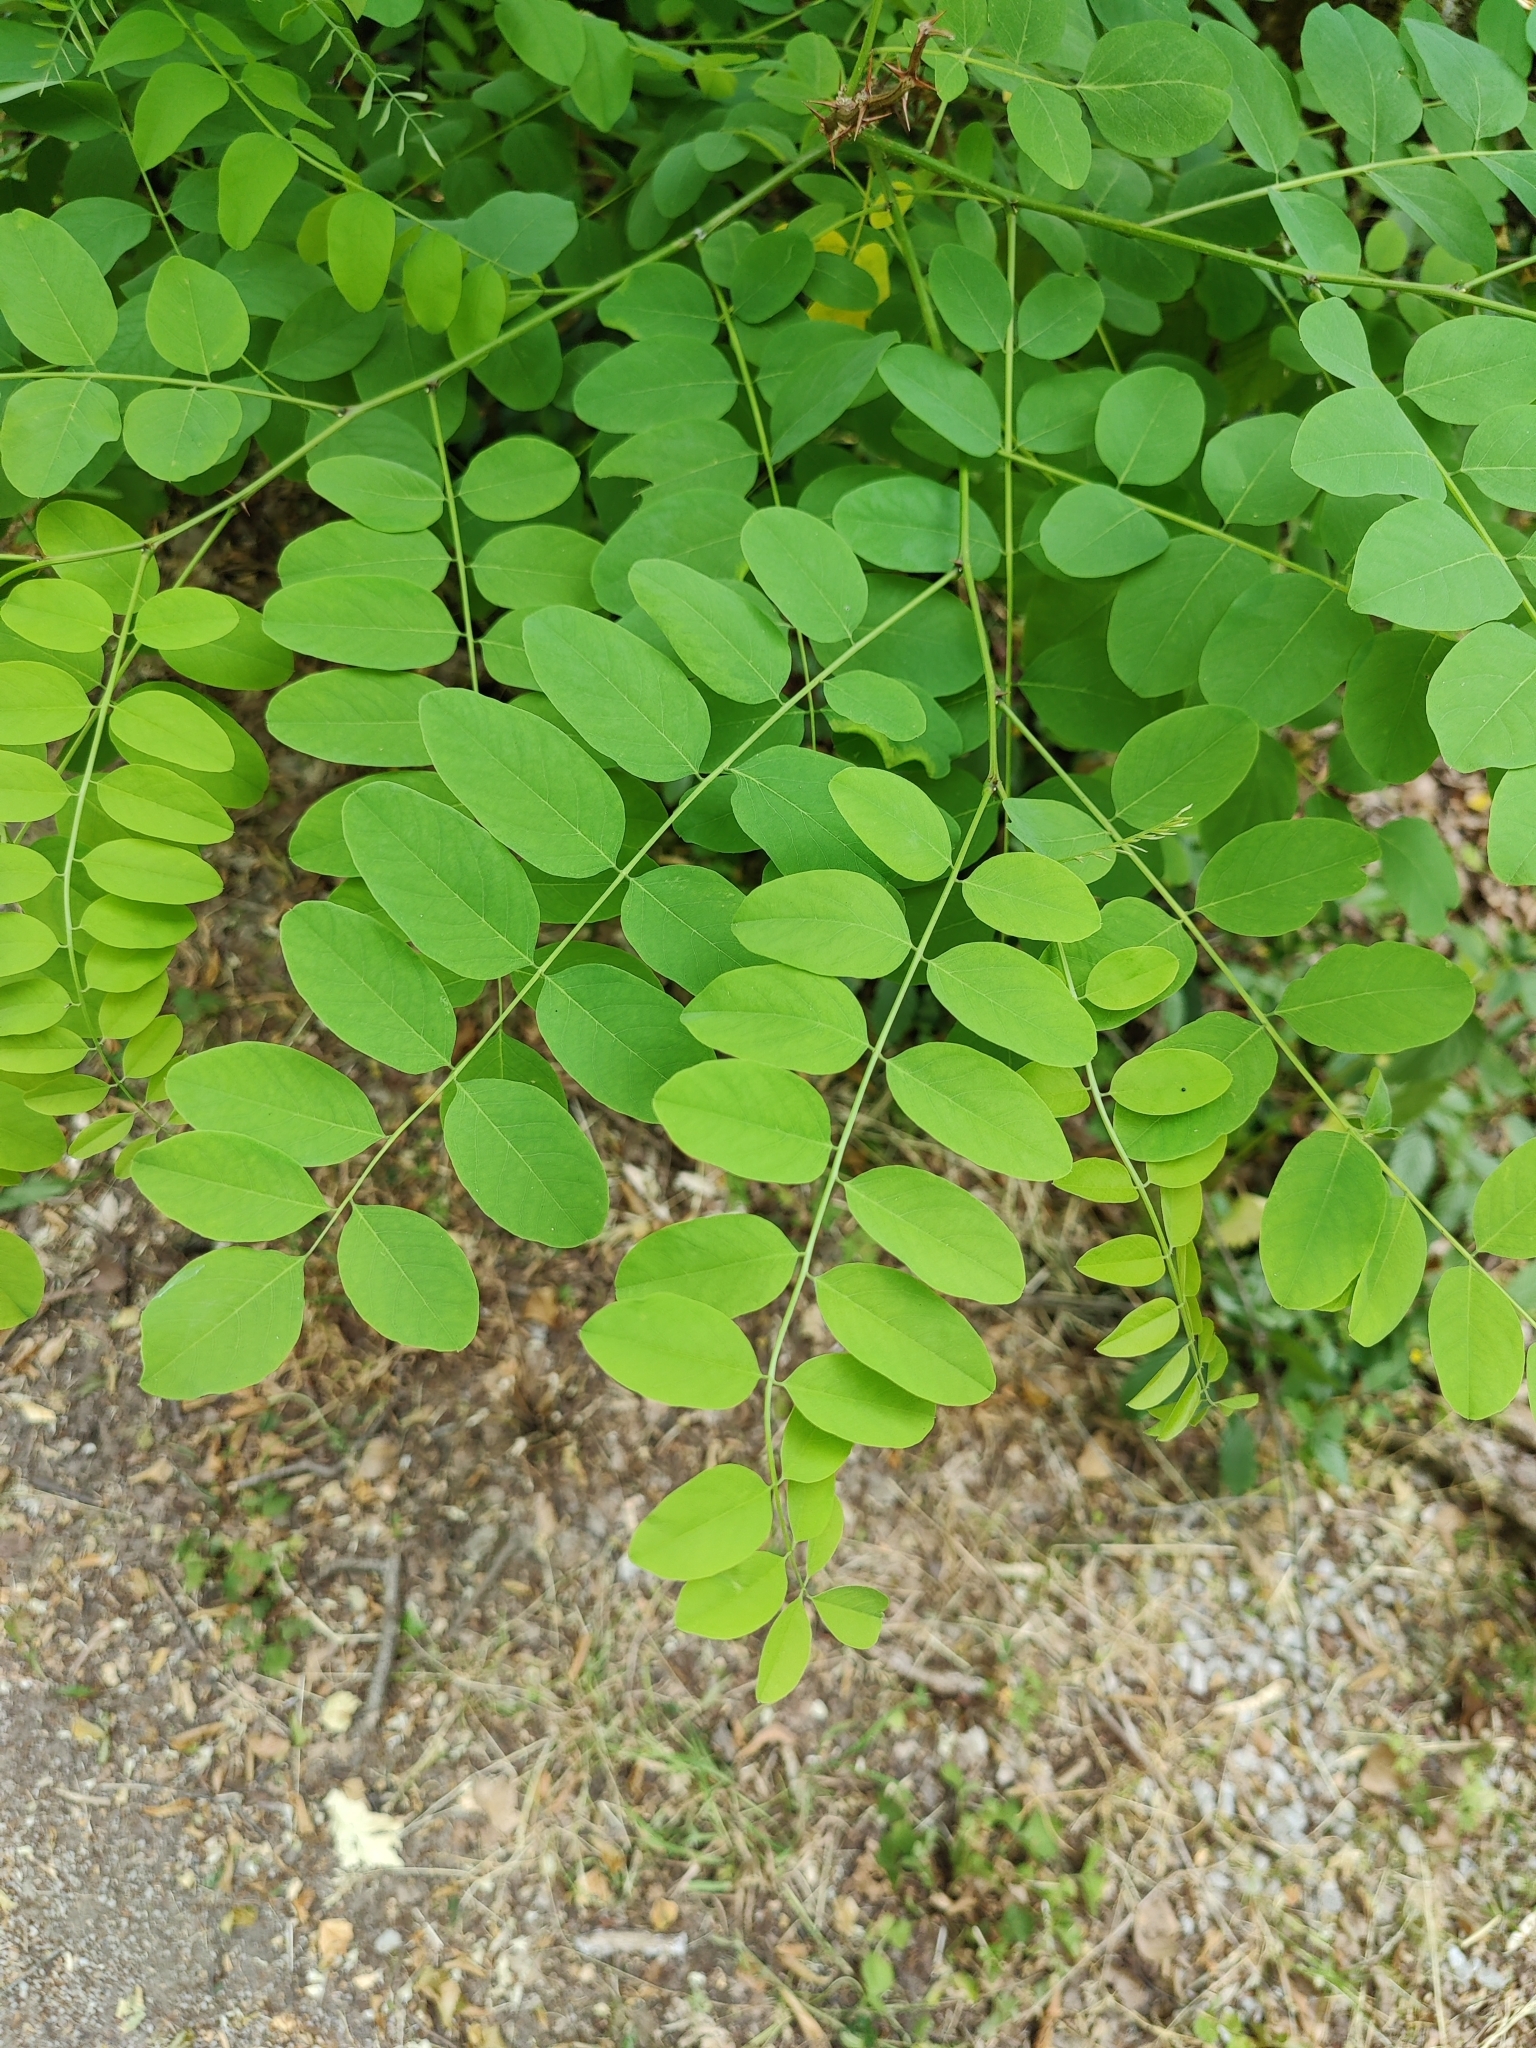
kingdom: Plantae
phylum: Tracheophyta
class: Magnoliopsida
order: Fabales
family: Fabaceae
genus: Robinia
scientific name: Robinia pseudoacacia
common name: Black locust
